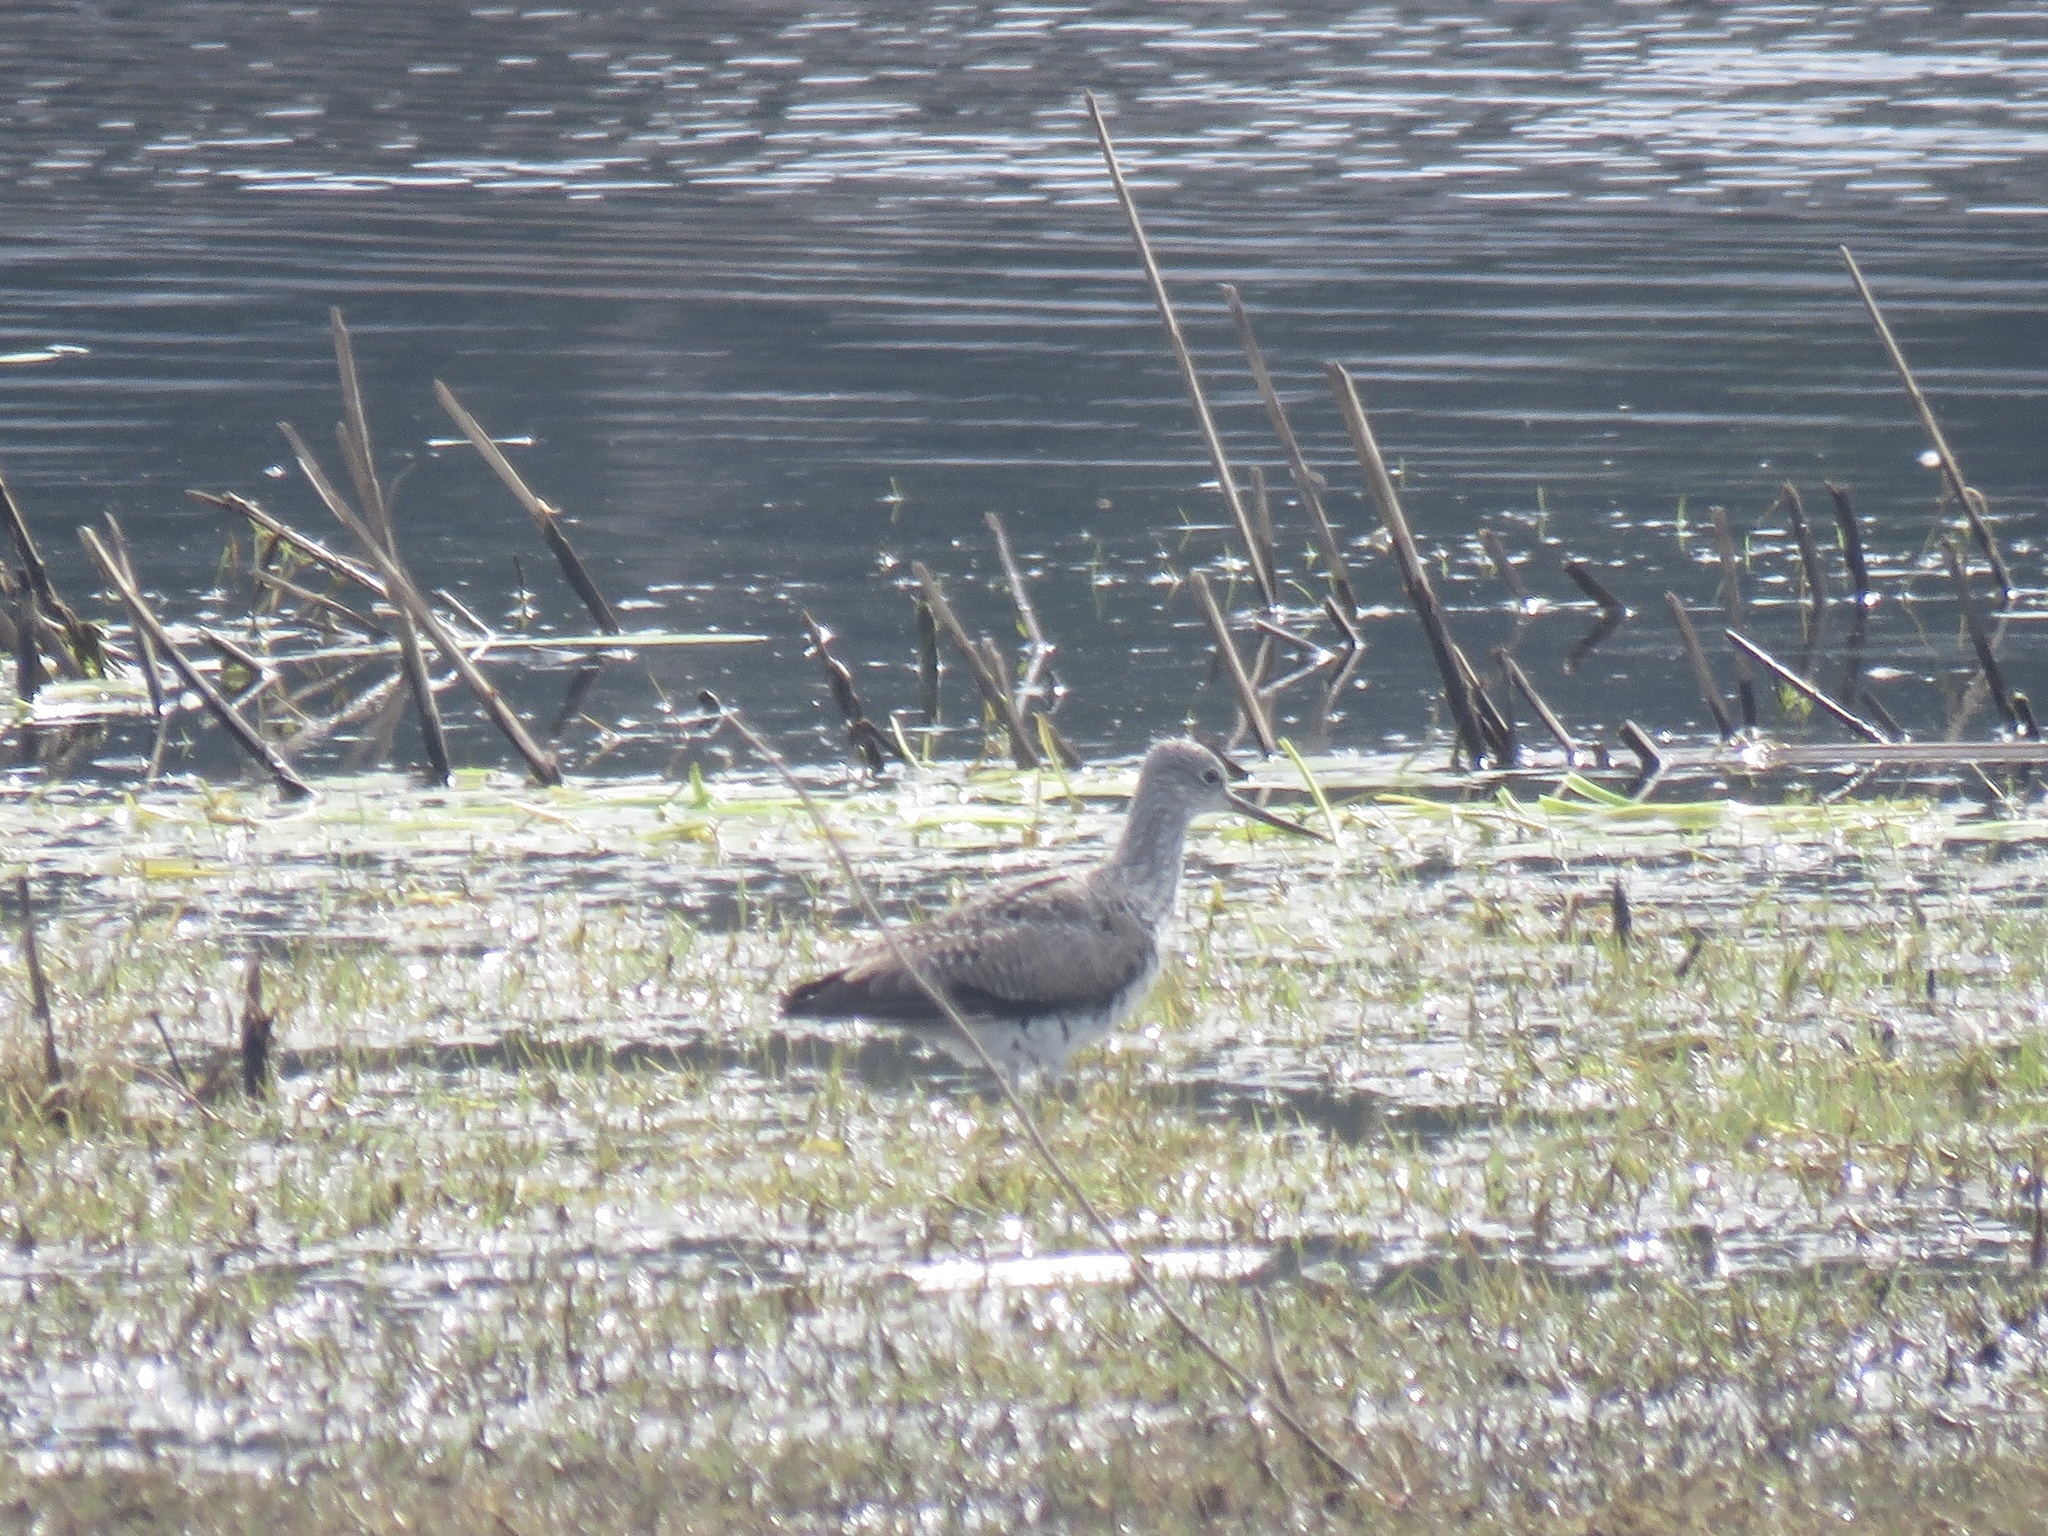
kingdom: Animalia
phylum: Chordata
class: Aves
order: Charadriiformes
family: Scolopacidae
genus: Tringa
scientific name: Tringa melanoleuca
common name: Greater yellowlegs
